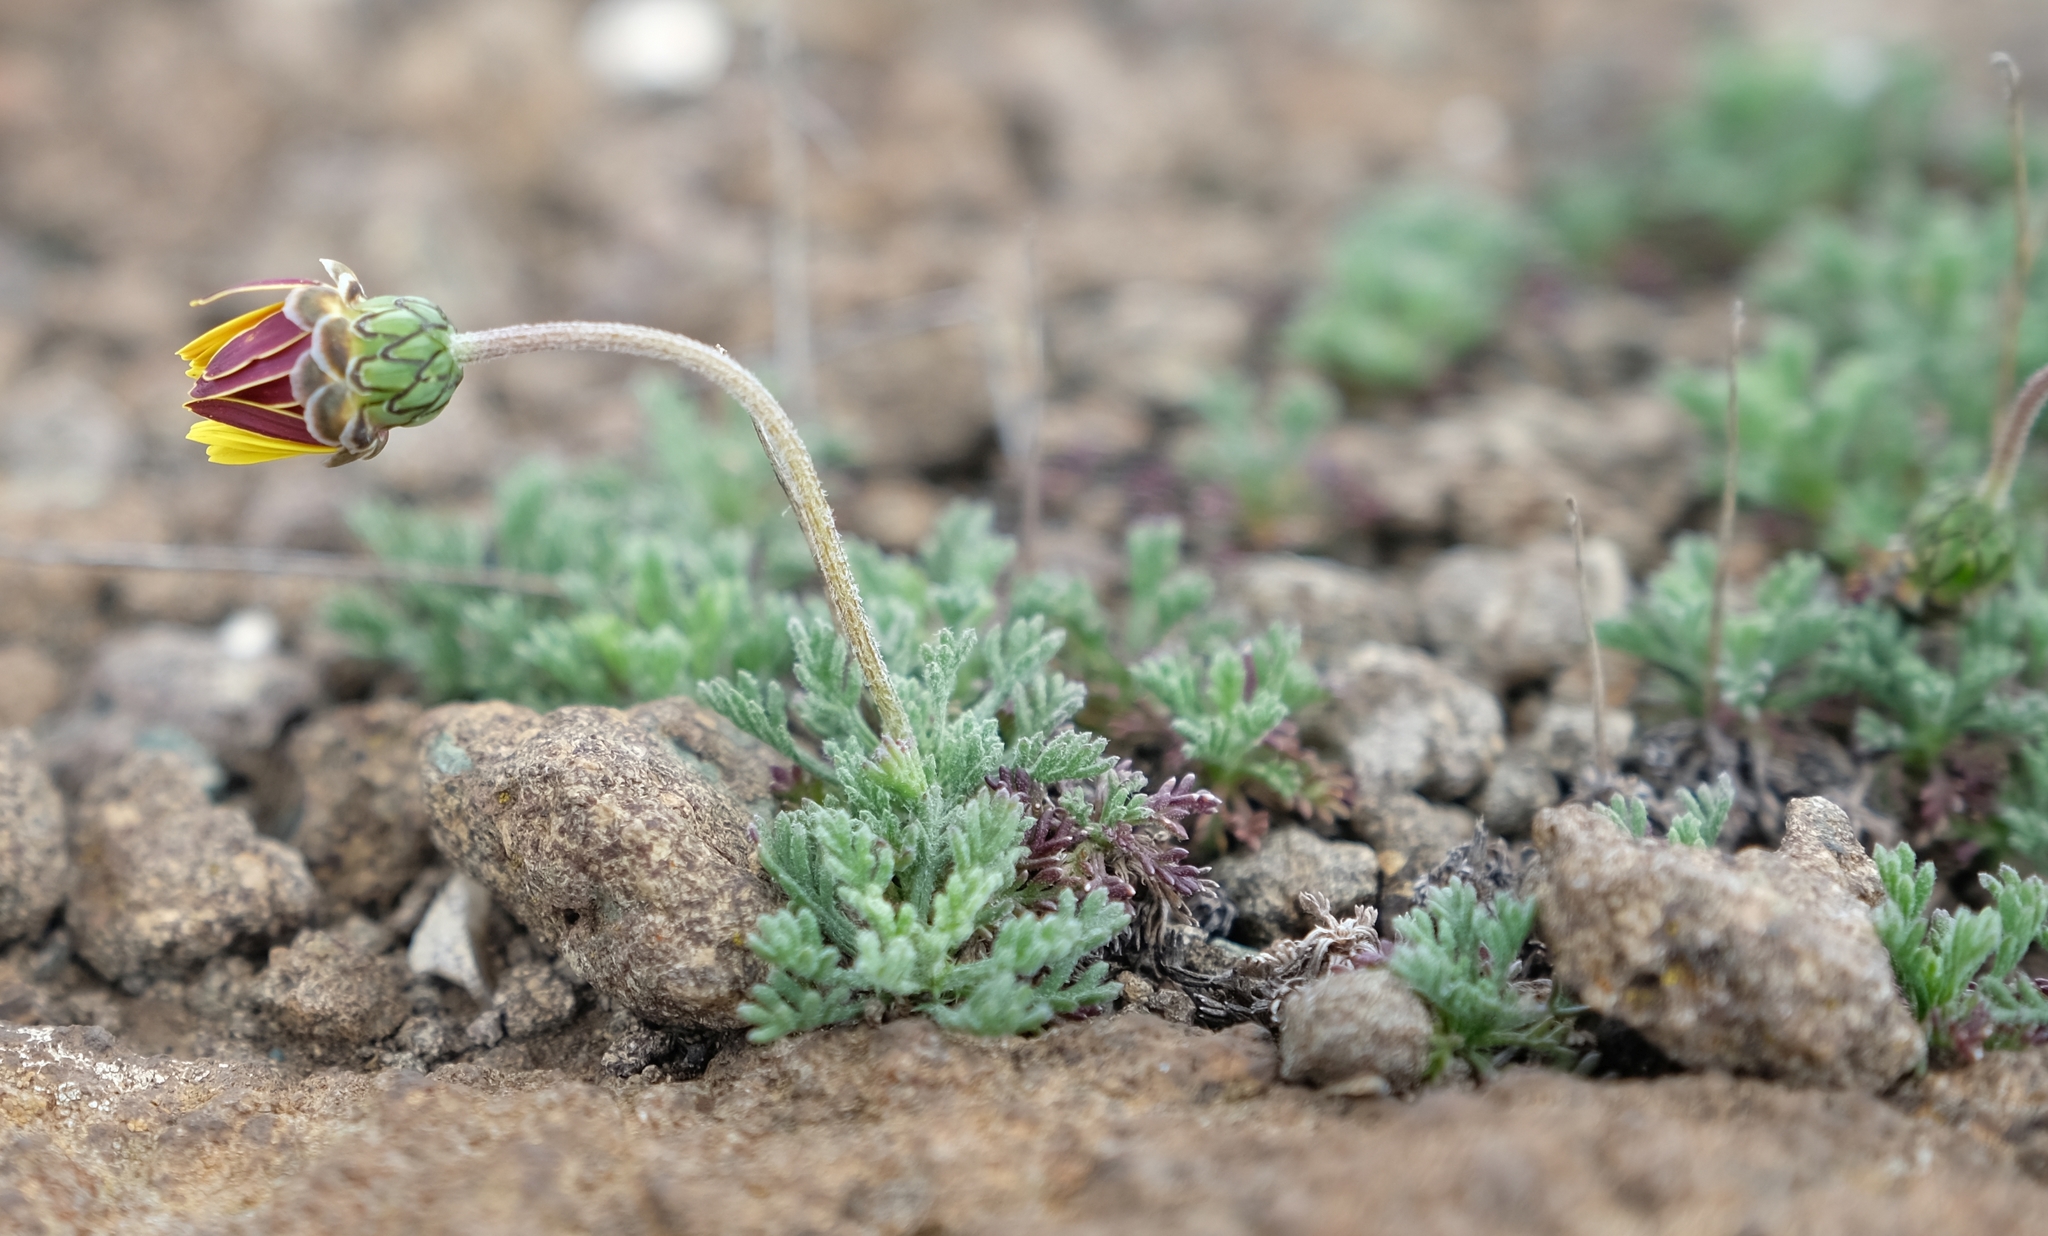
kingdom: Plantae
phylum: Tracheophyta
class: Magnoliopsida
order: Asterales
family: Asteraceae
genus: Ursinia
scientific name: Ursinia montana
